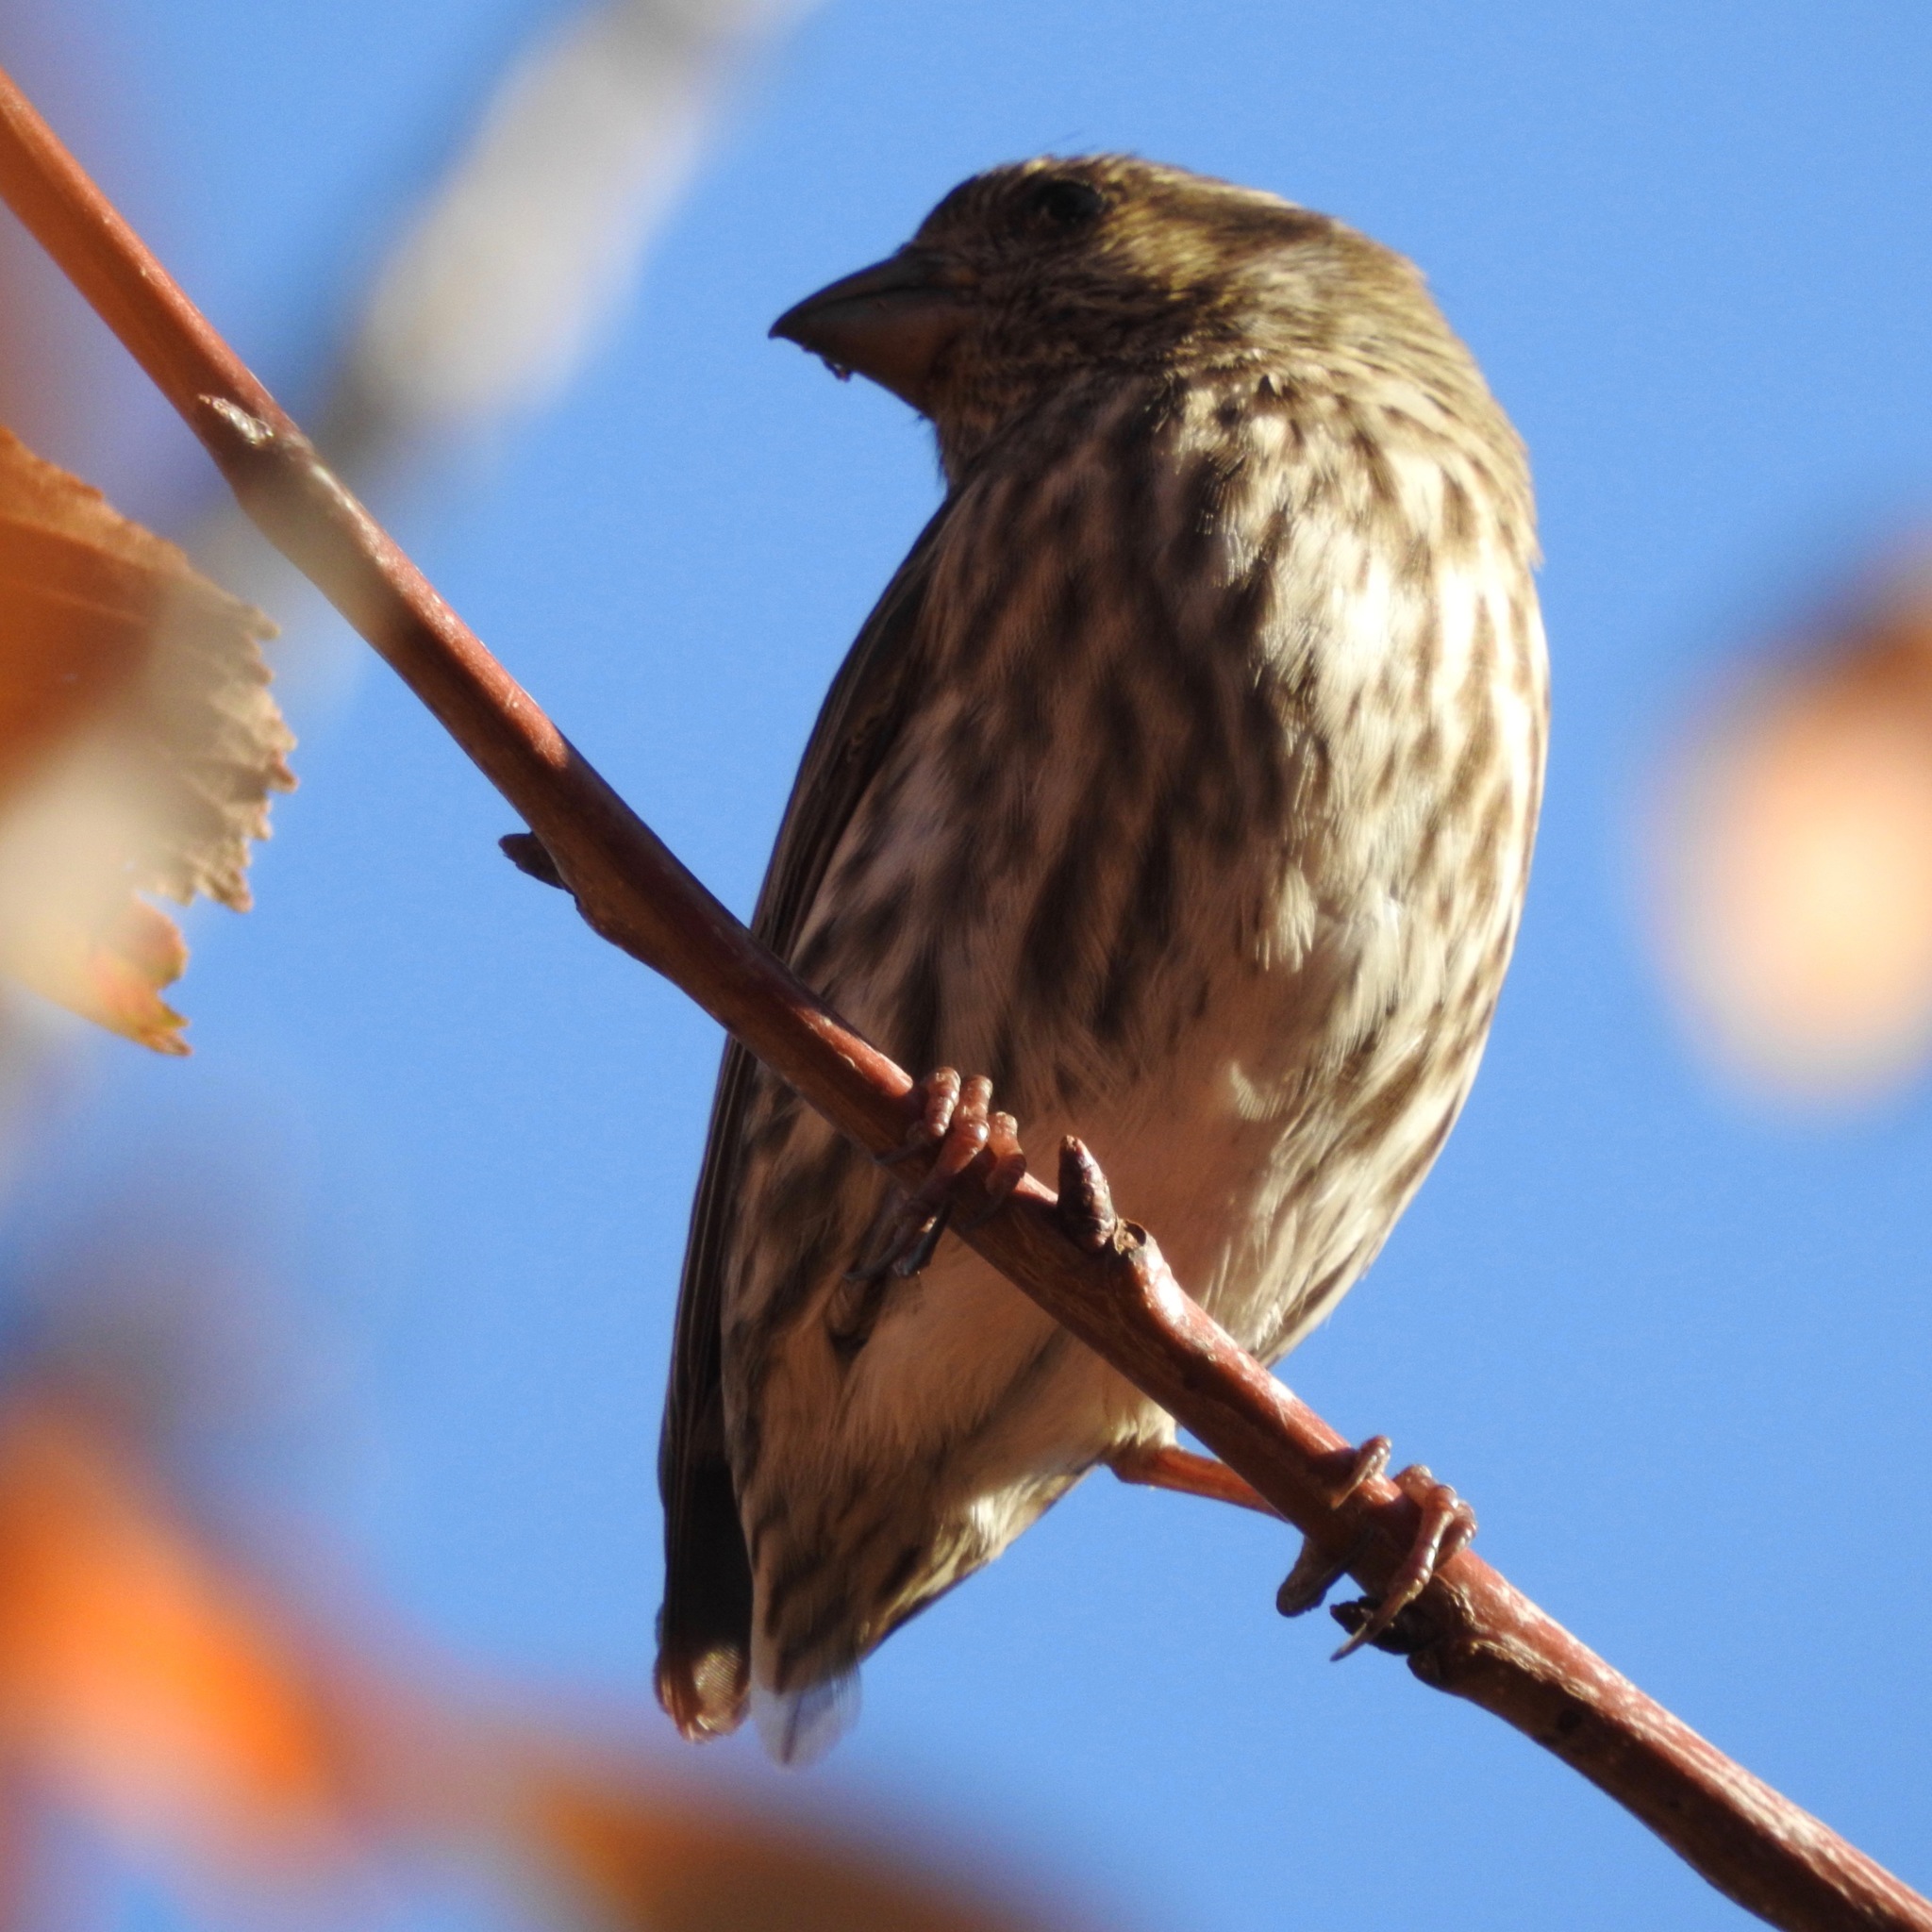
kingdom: Animalia
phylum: Chordata
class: Aves
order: Passeriformes
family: Fringillidae
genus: Haemorhous
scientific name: Haemorhous mexicanus
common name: House finch
